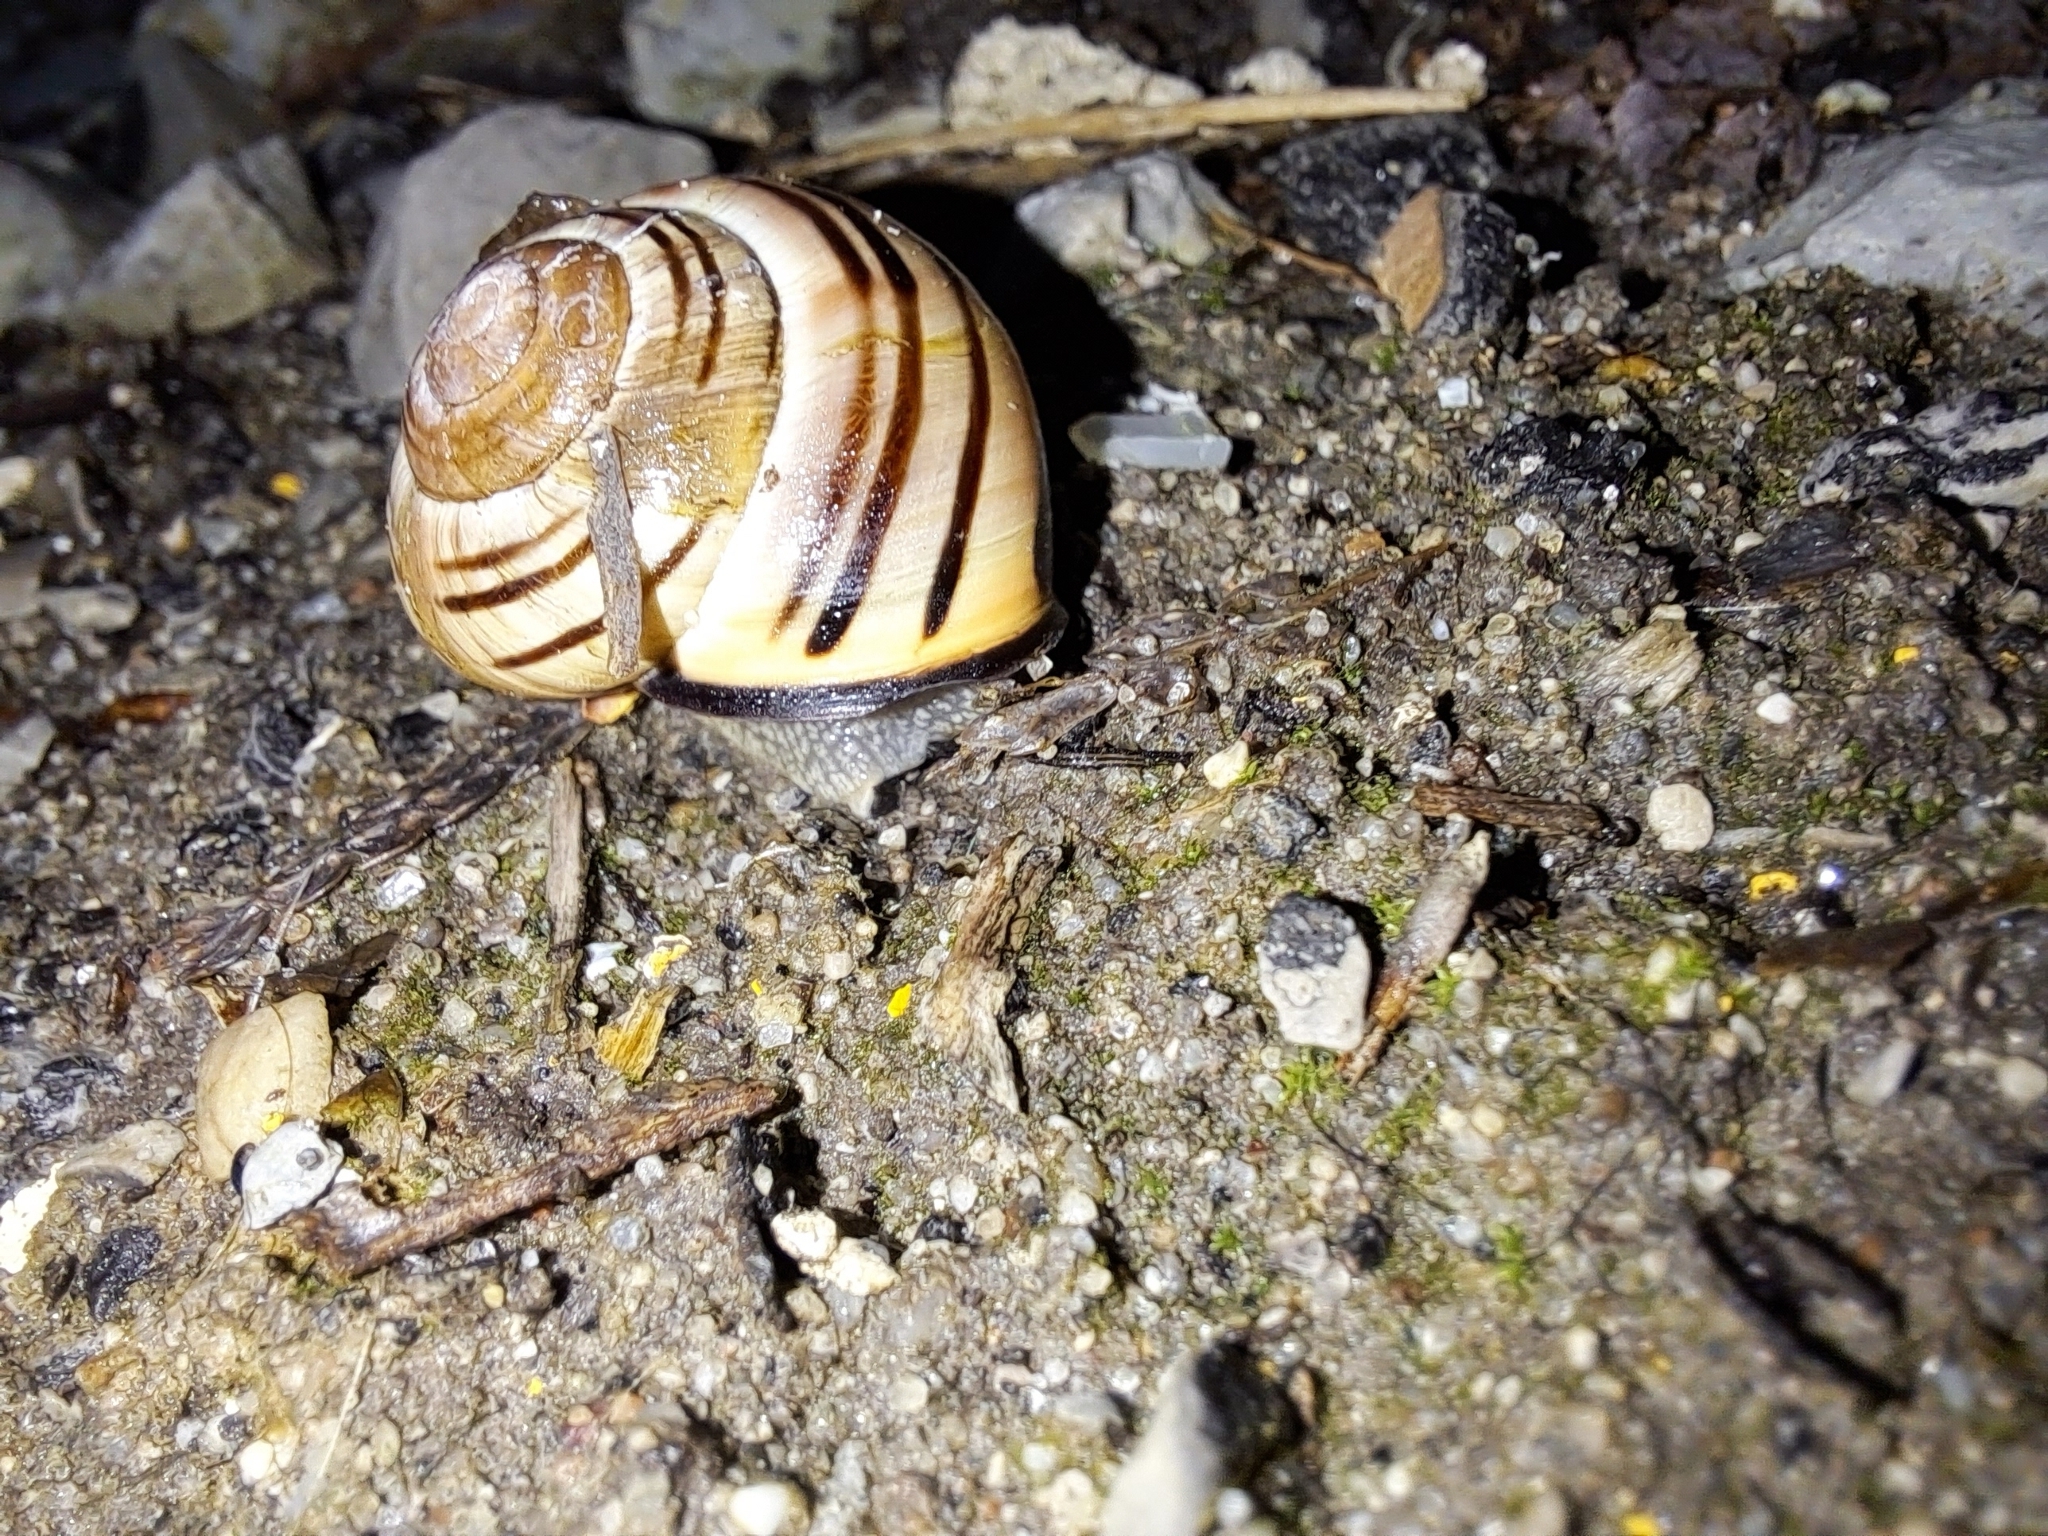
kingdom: Animalia
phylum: Mollusca
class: Gastropoda
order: Stylommatophora
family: Helicidae
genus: Cepaea
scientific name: Cepaea nemoralis
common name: Grovesnail
